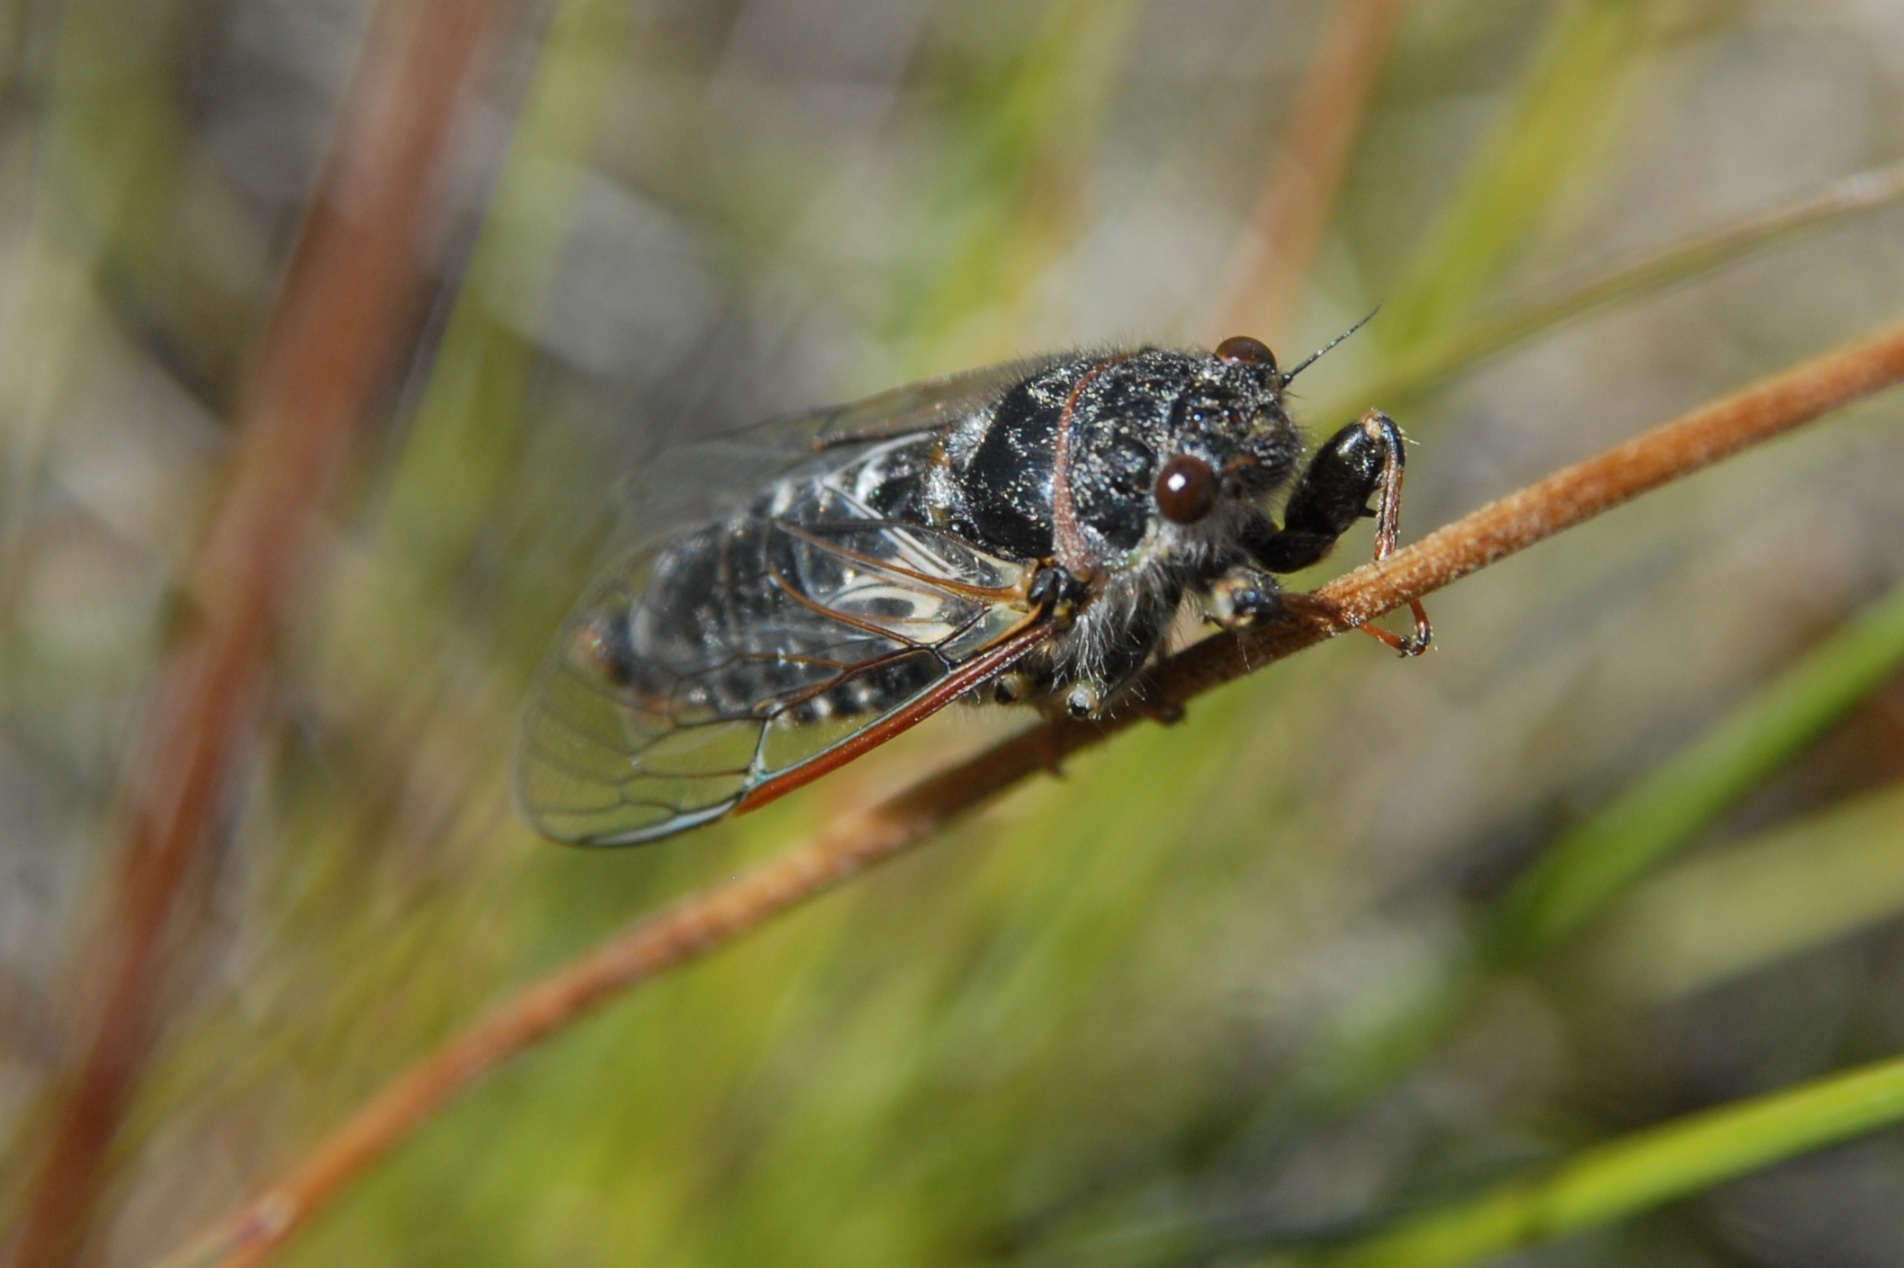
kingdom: Animalia
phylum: Arthropoda
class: Insecta
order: Hemiptera
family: Cicadidae
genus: Maoricicada
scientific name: Maoricicada cassiope
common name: Screaming cicada
